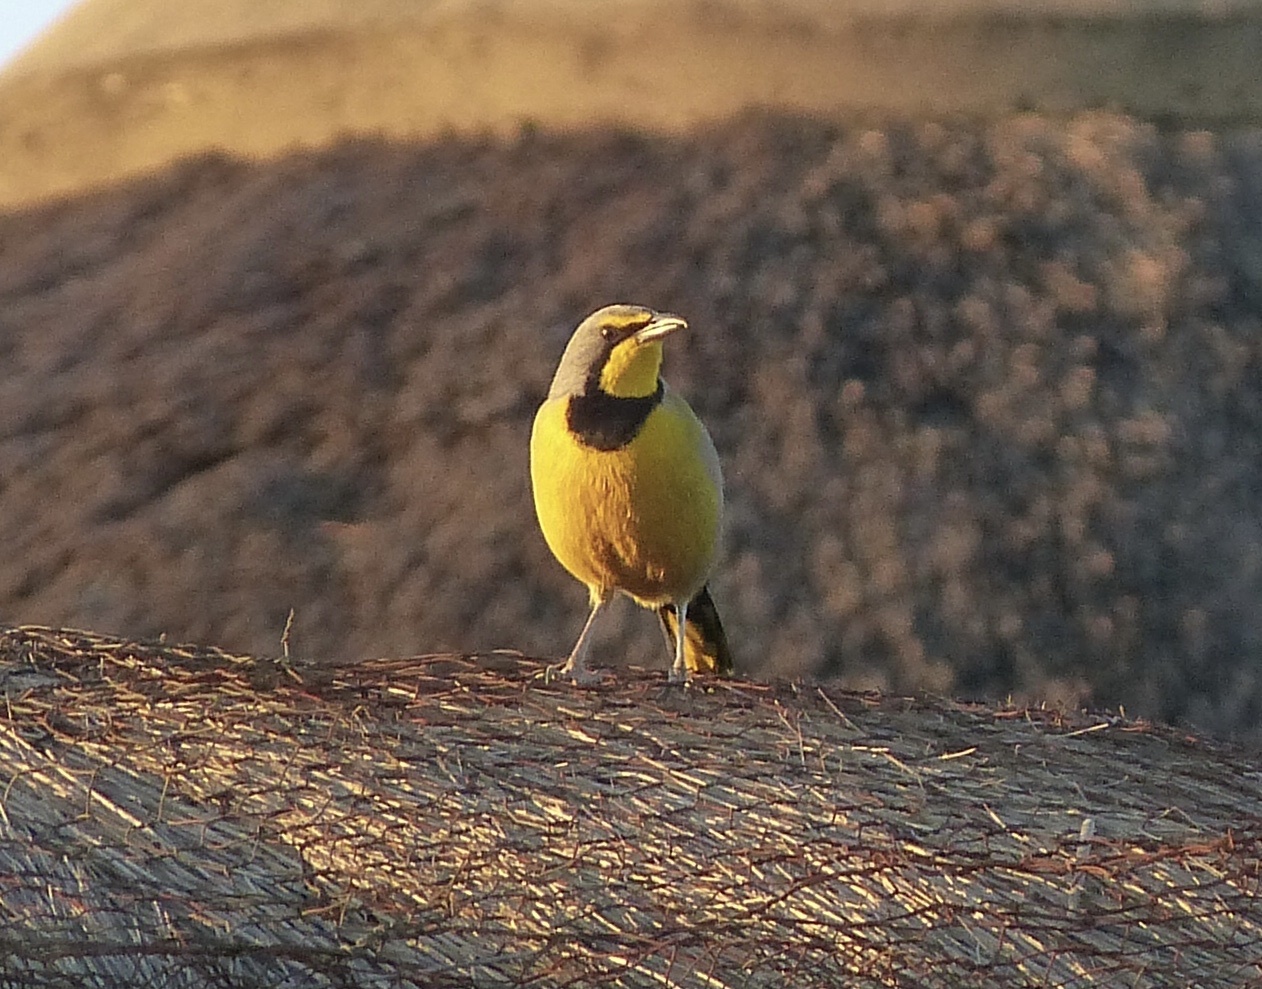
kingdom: Animalia
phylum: Chordata
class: Aves
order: Passeriformes
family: Malaconotidae
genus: Telophorus
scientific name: Telophorus zeylonus
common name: Bokmakierie
